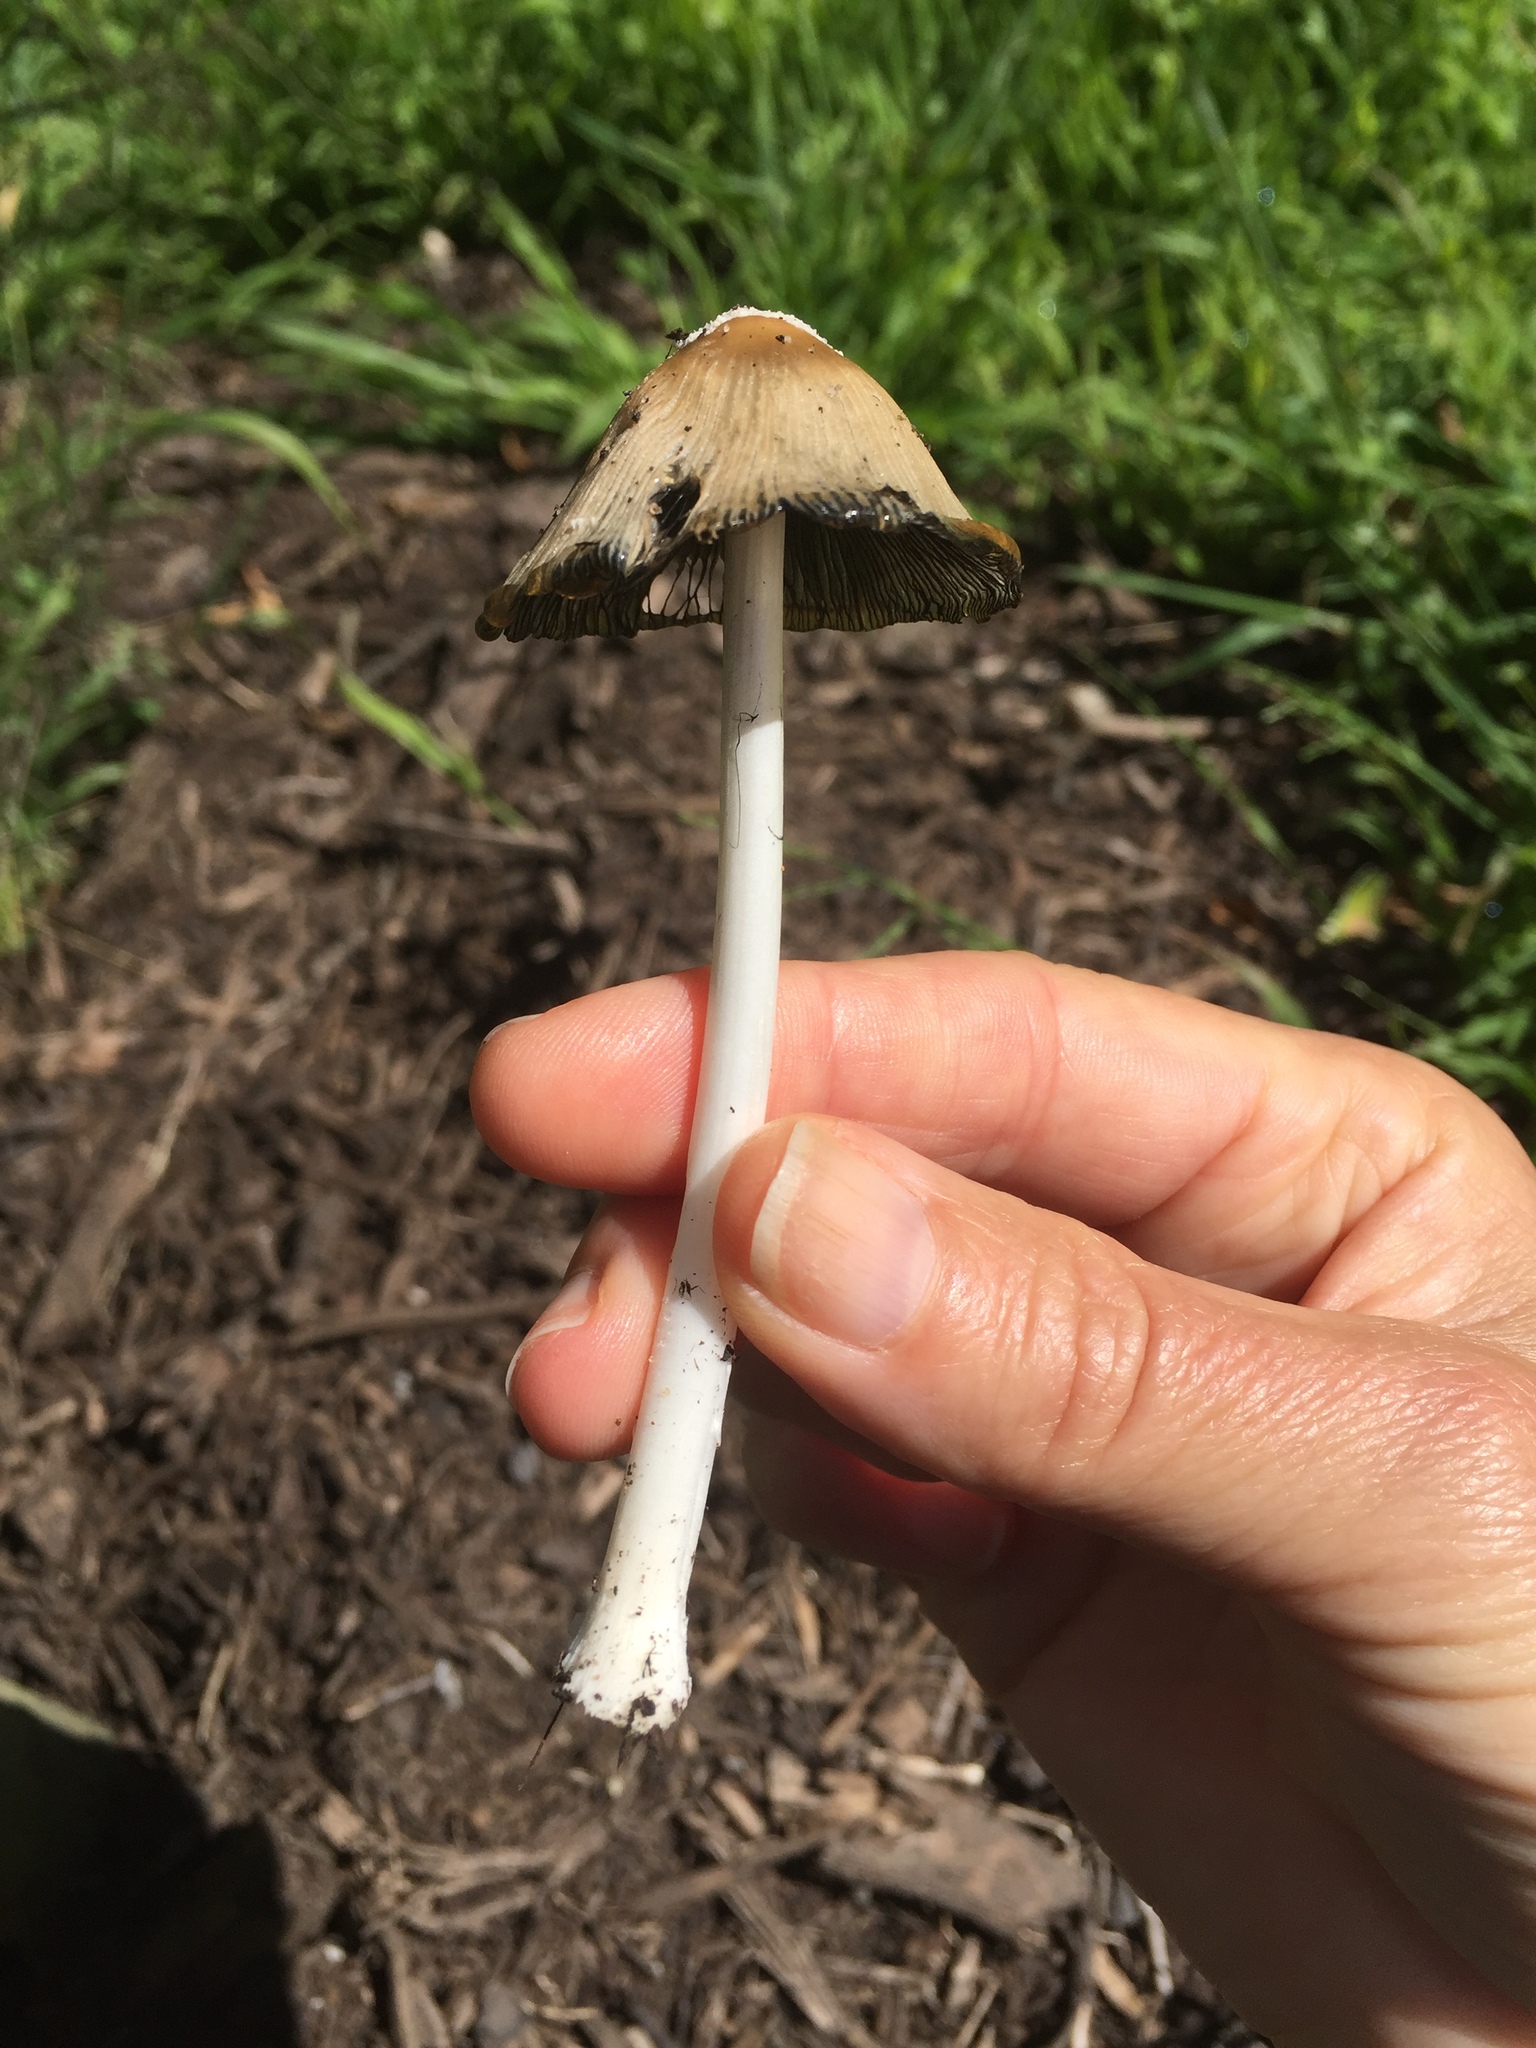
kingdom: Fungi
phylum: Basidiomycota
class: Agaricomycetes
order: Agaricales
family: Psathyrellaceae
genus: Coprinopsis
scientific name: Coprinopsis atramentaria
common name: Common ink-cap
